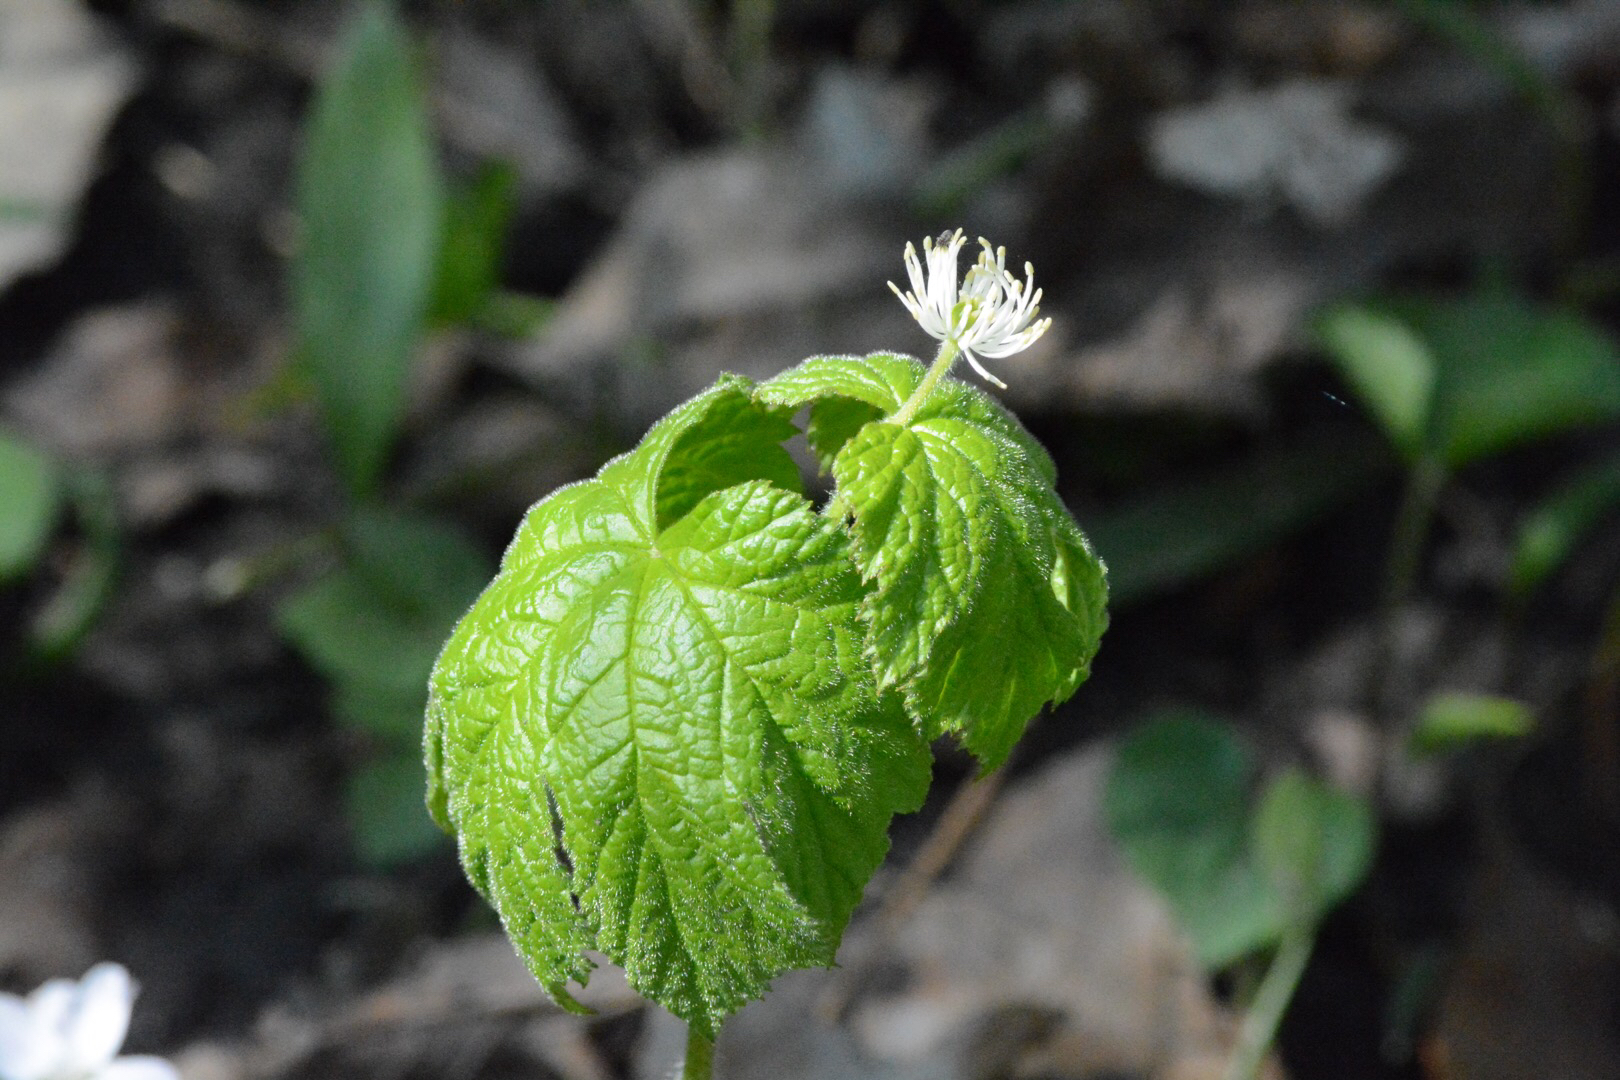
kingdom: Plantae
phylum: Tracheophyta
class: Magnoliopsida
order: Ranunculales
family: Ranunculaceae
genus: Hydrastis
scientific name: Hydrastis canadensis
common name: Goldenseal
